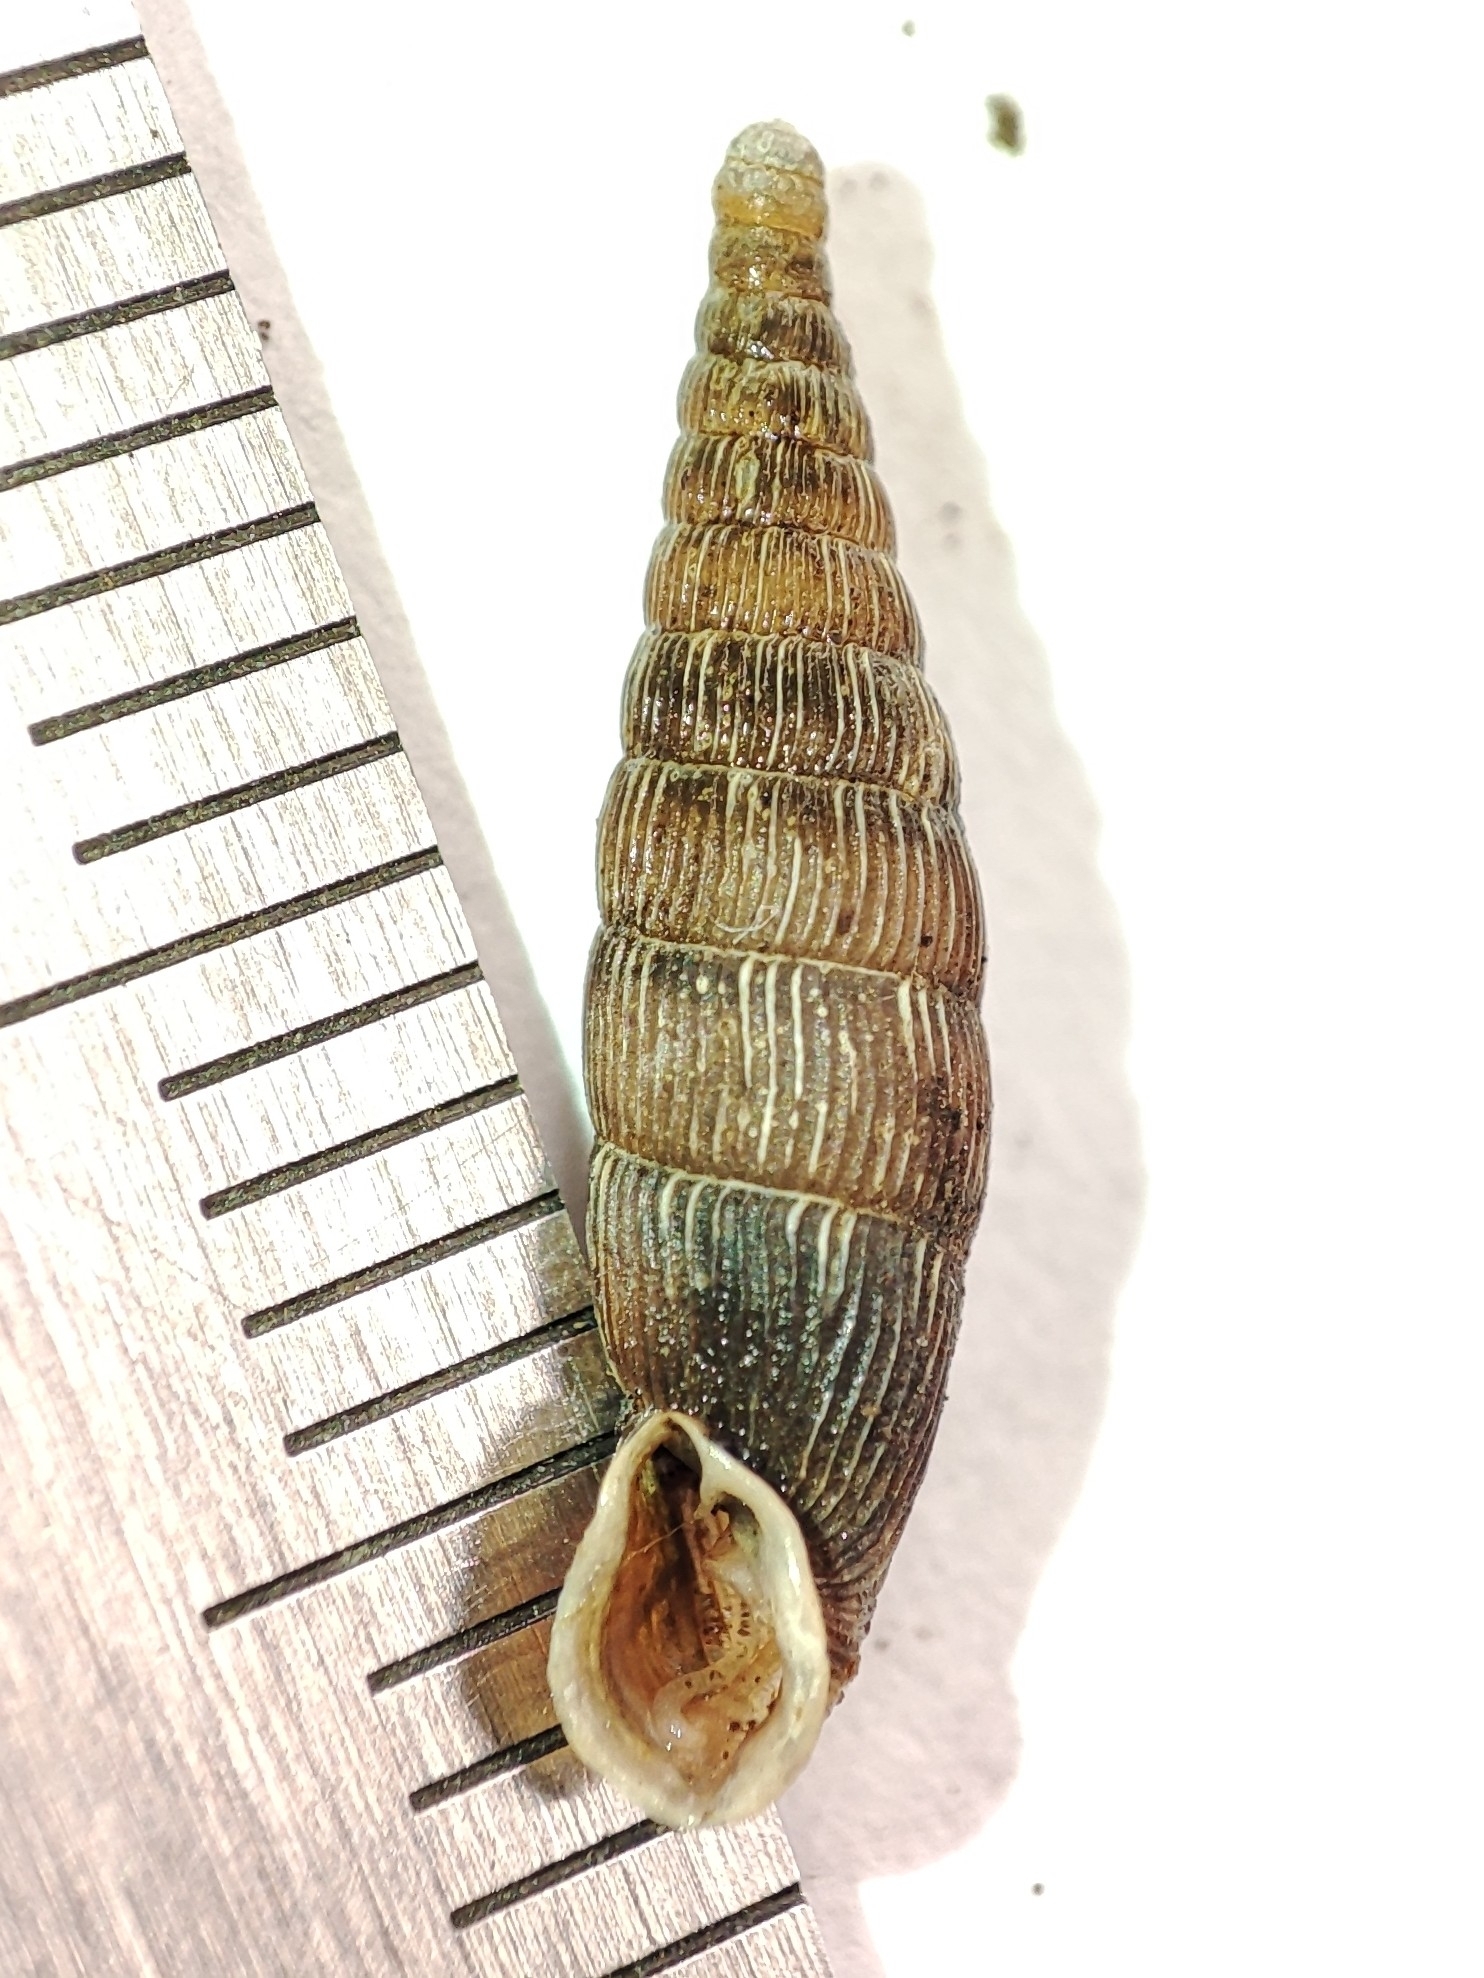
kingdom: Animalia
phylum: Mollusca
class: Gastropoda
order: Stylommatophora
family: Clausiliidae
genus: Strigillaria
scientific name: Strigillaria cana
